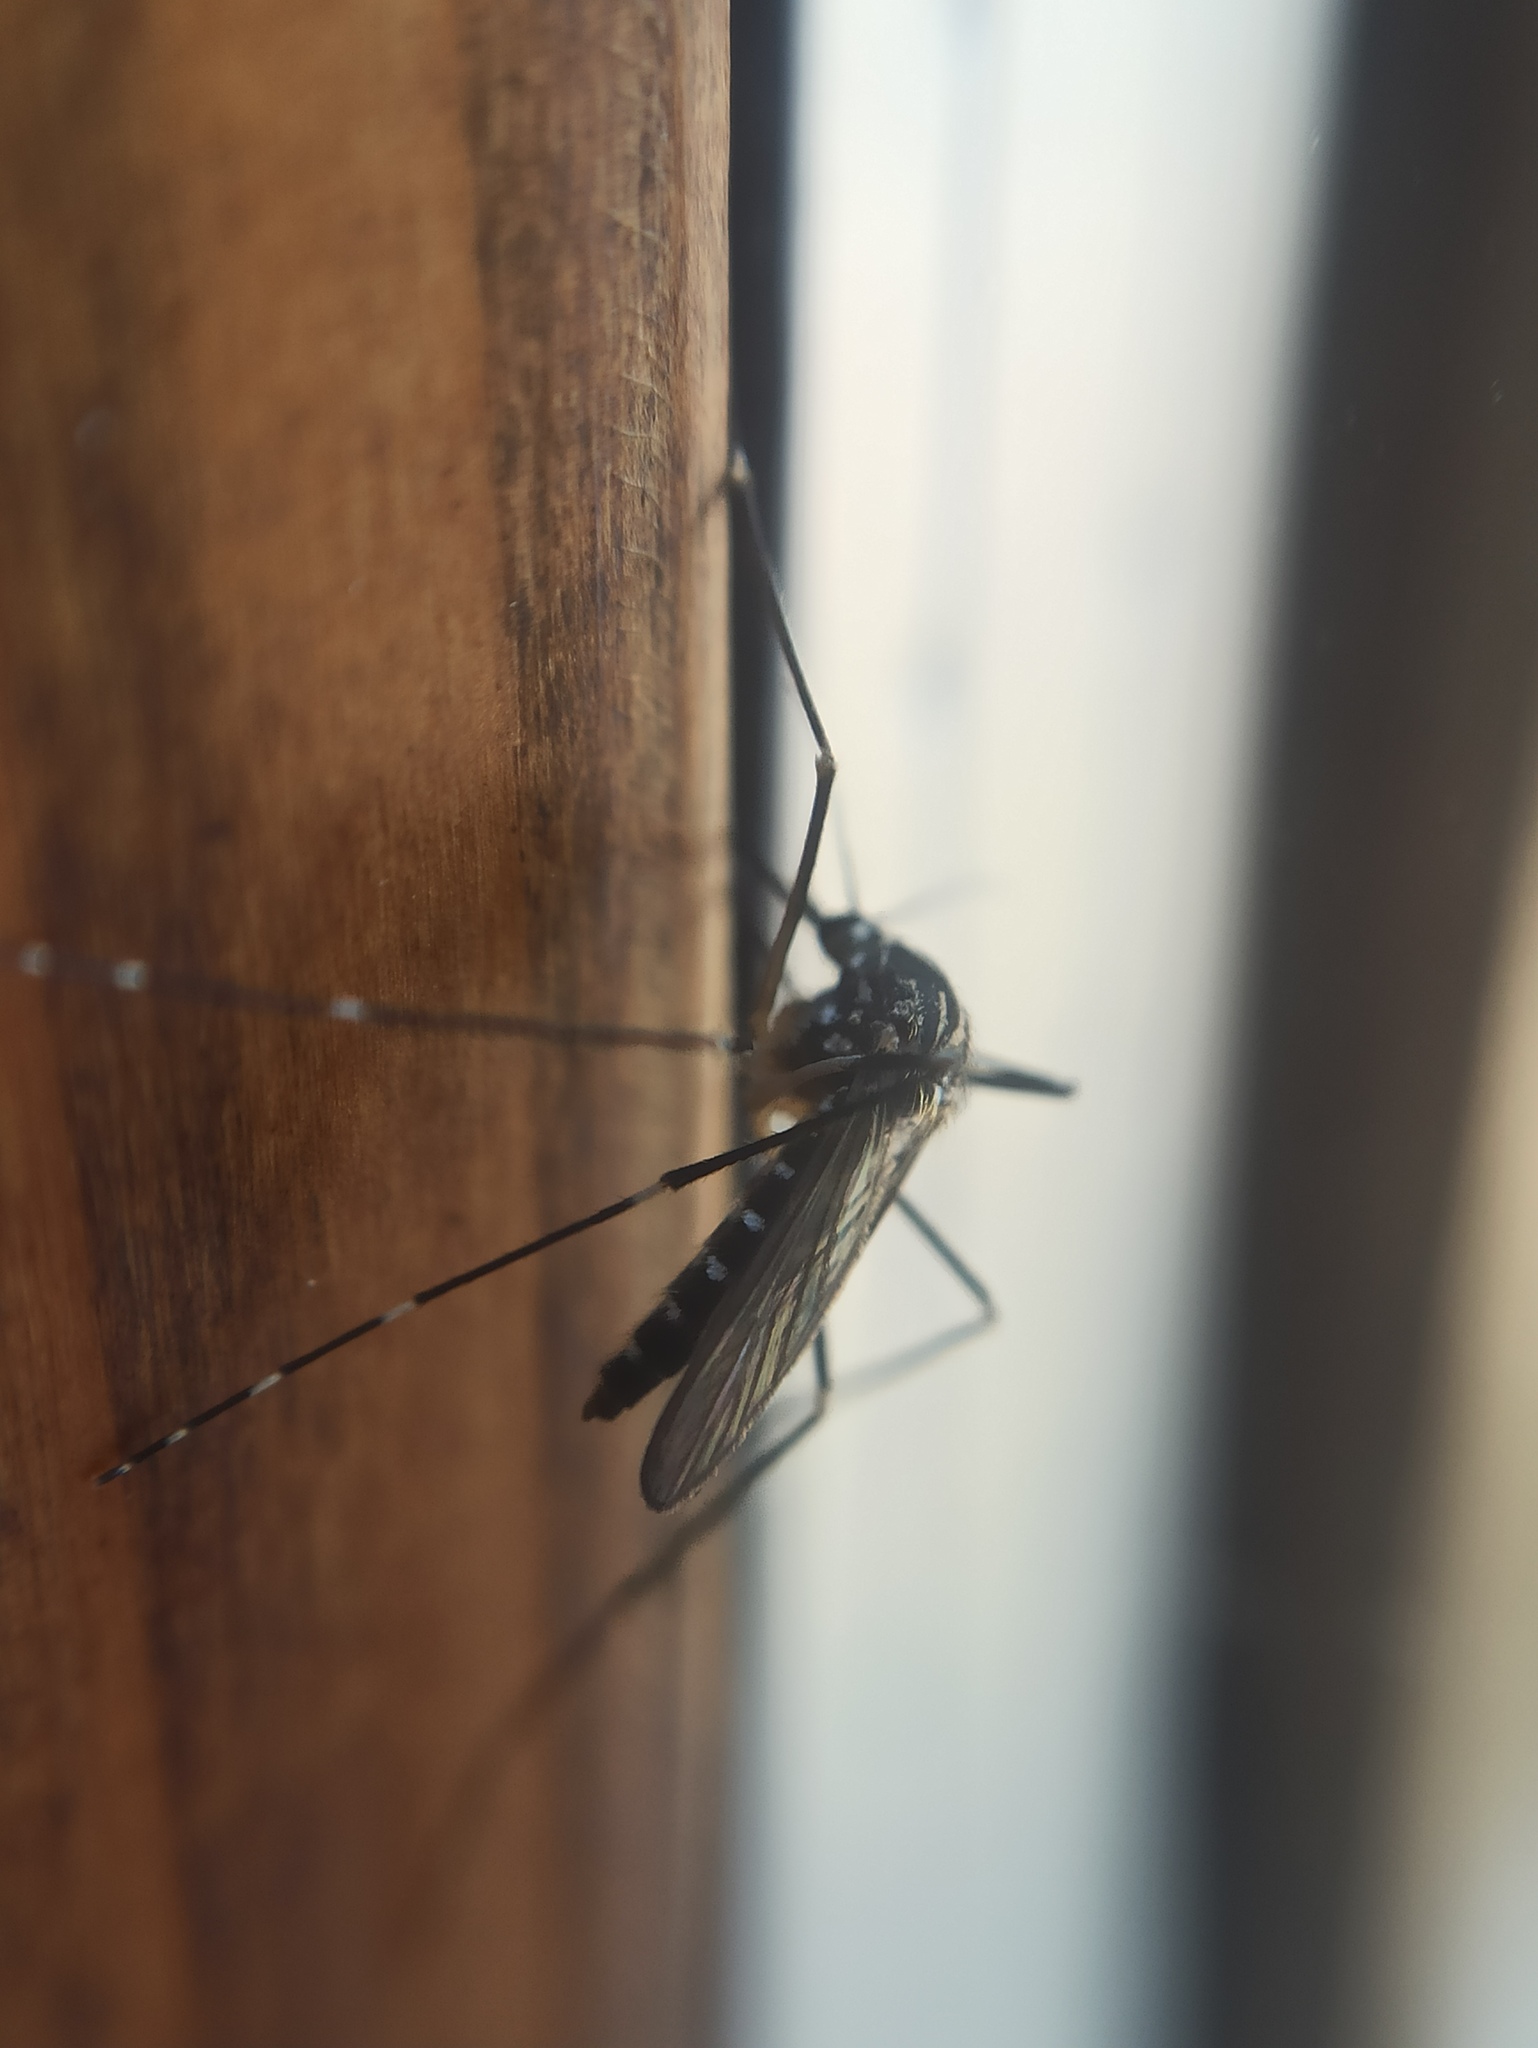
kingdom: Animalia
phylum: Arthropoda
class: Insecta
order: Diptera
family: Culicidae
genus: Aedes
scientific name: Aedes koreicus
